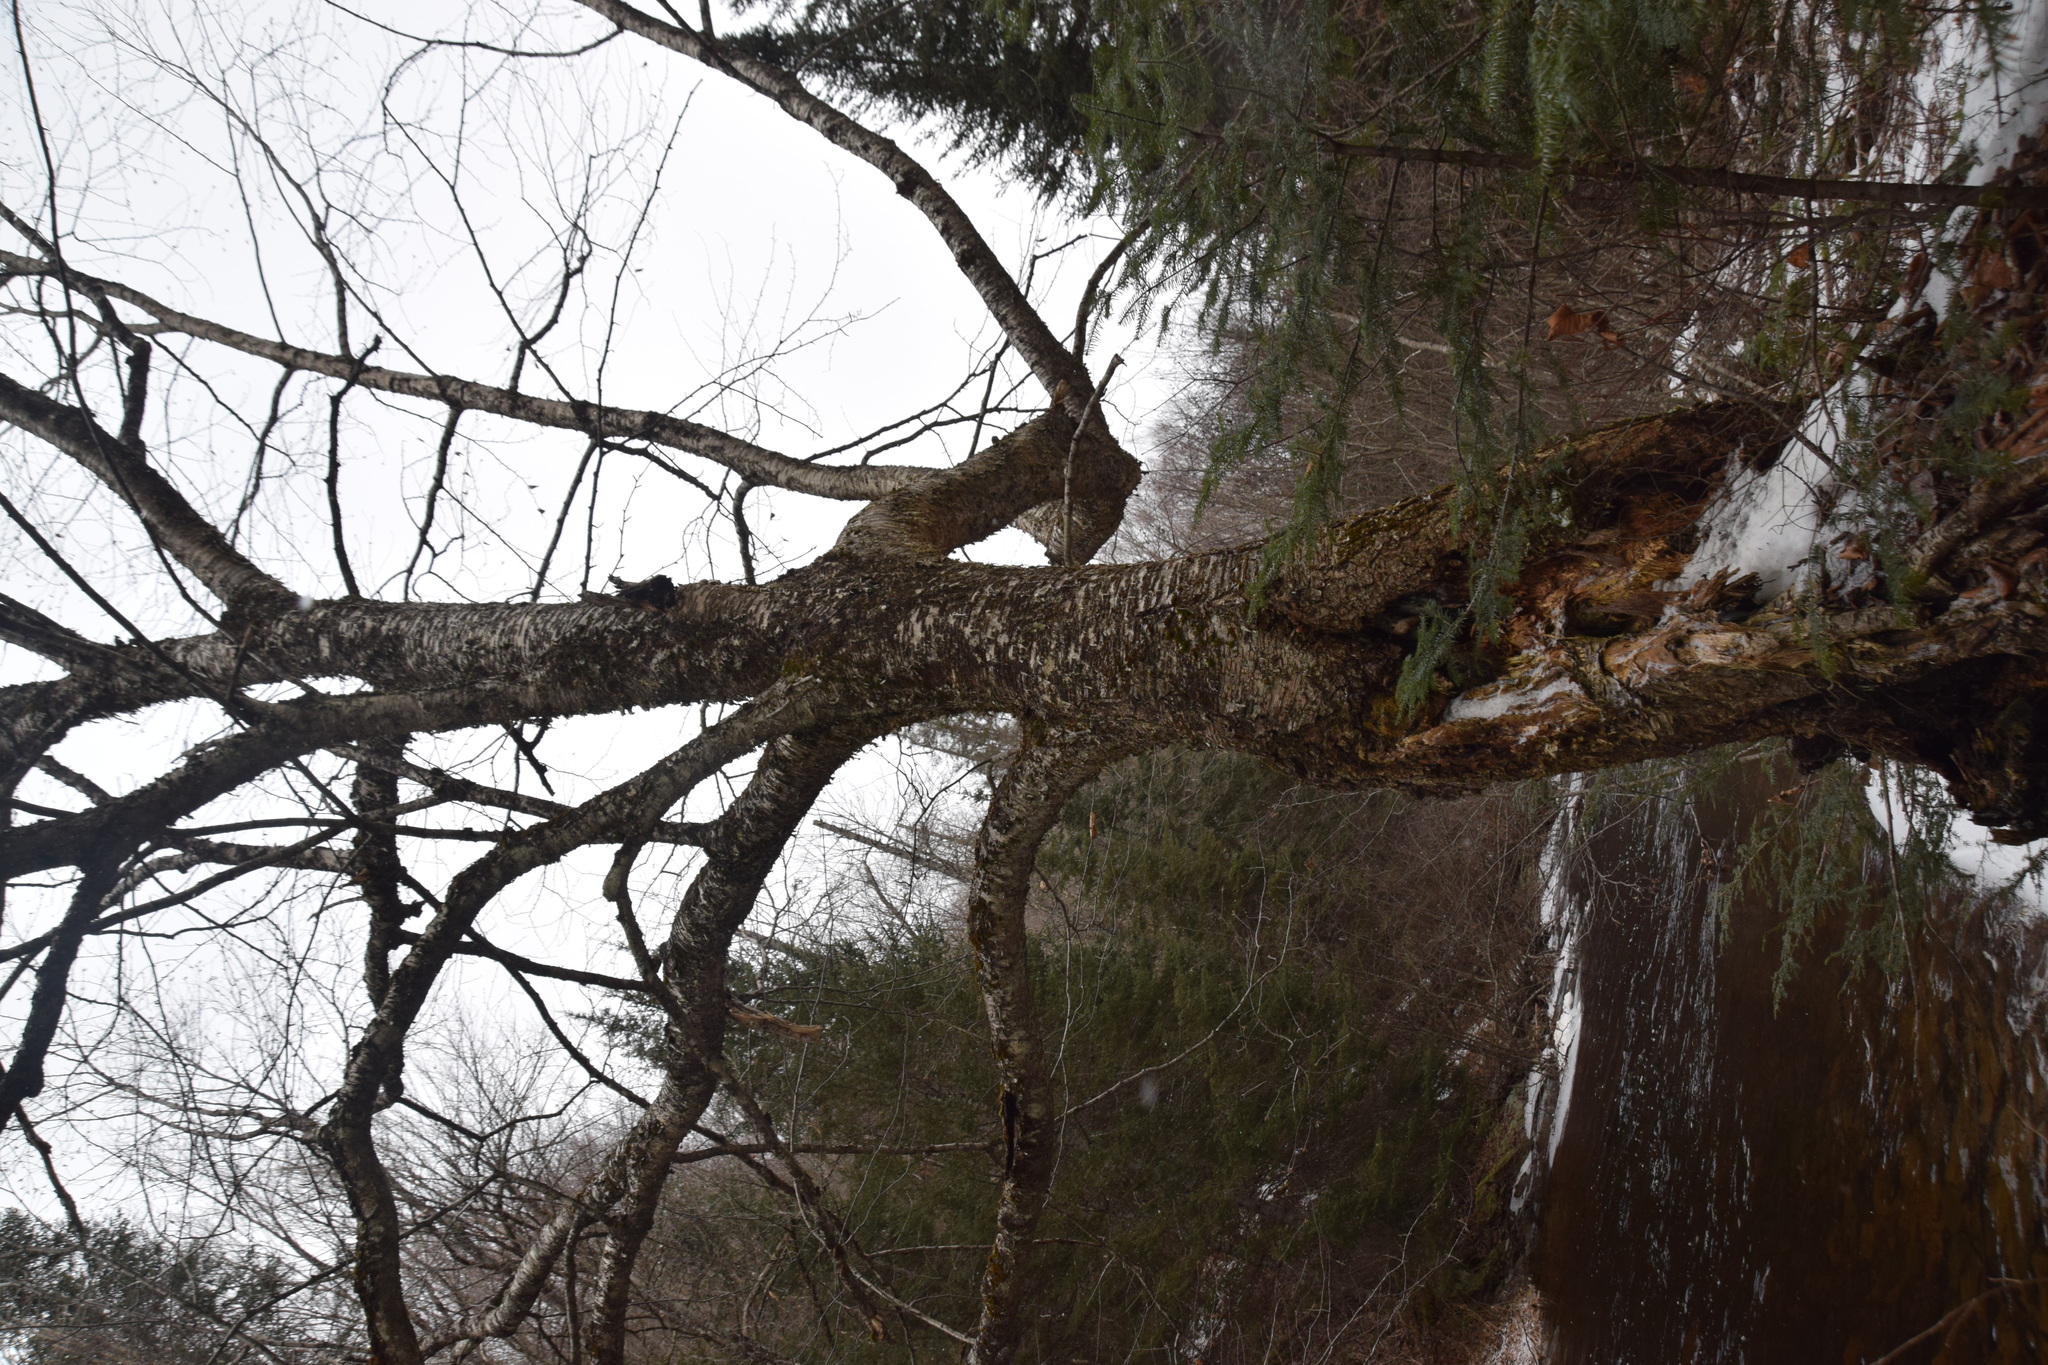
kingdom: Plantae
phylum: Tracheophyta
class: Magnoliopsida
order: Fagales
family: Betulaceae
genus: Betula
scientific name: Betula alleghaniensis
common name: Yellow birch
